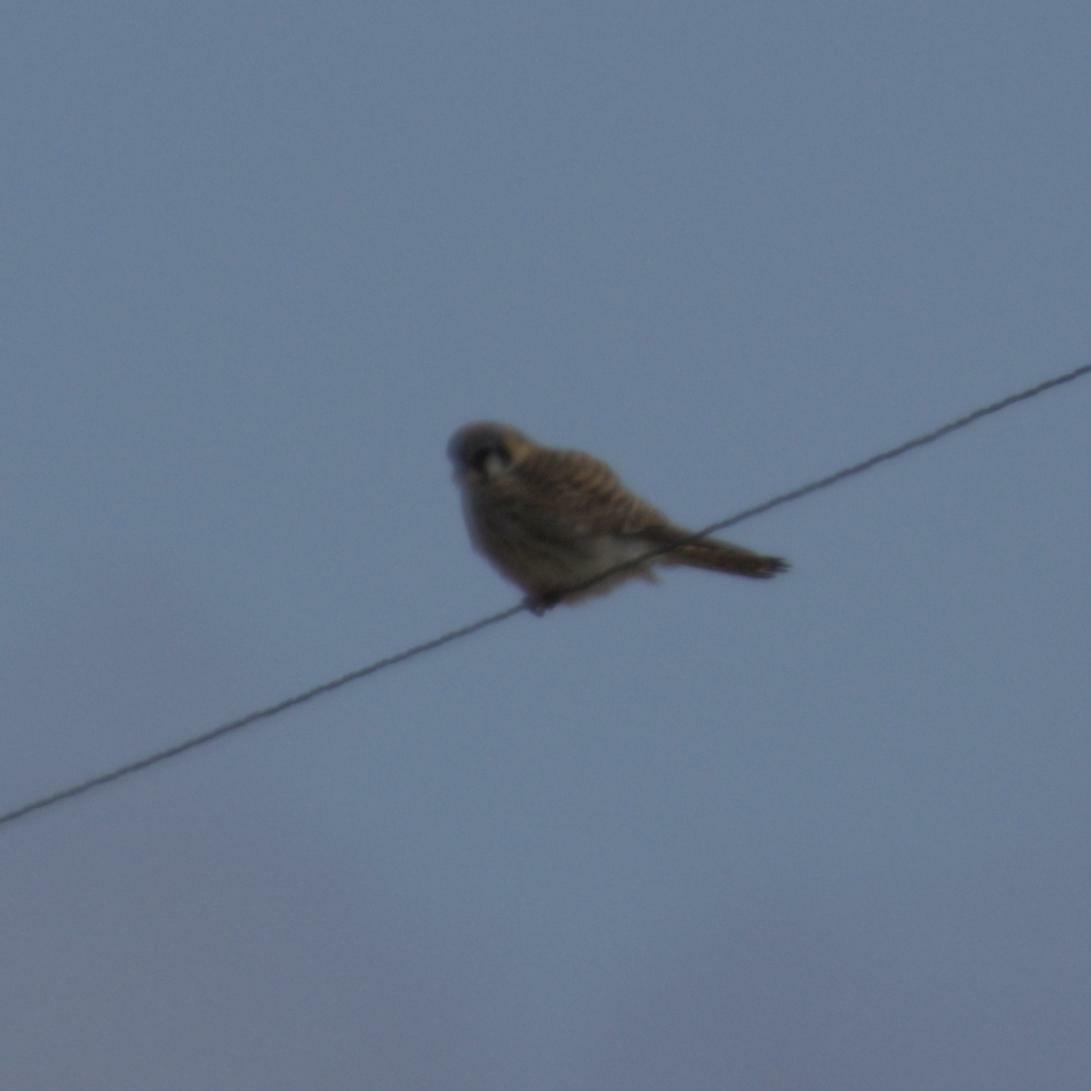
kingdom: Animalia
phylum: Chordata
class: Aves
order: Falconiformes
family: Falconidae
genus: Falco
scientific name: Falco sparverius
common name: American kestrel
